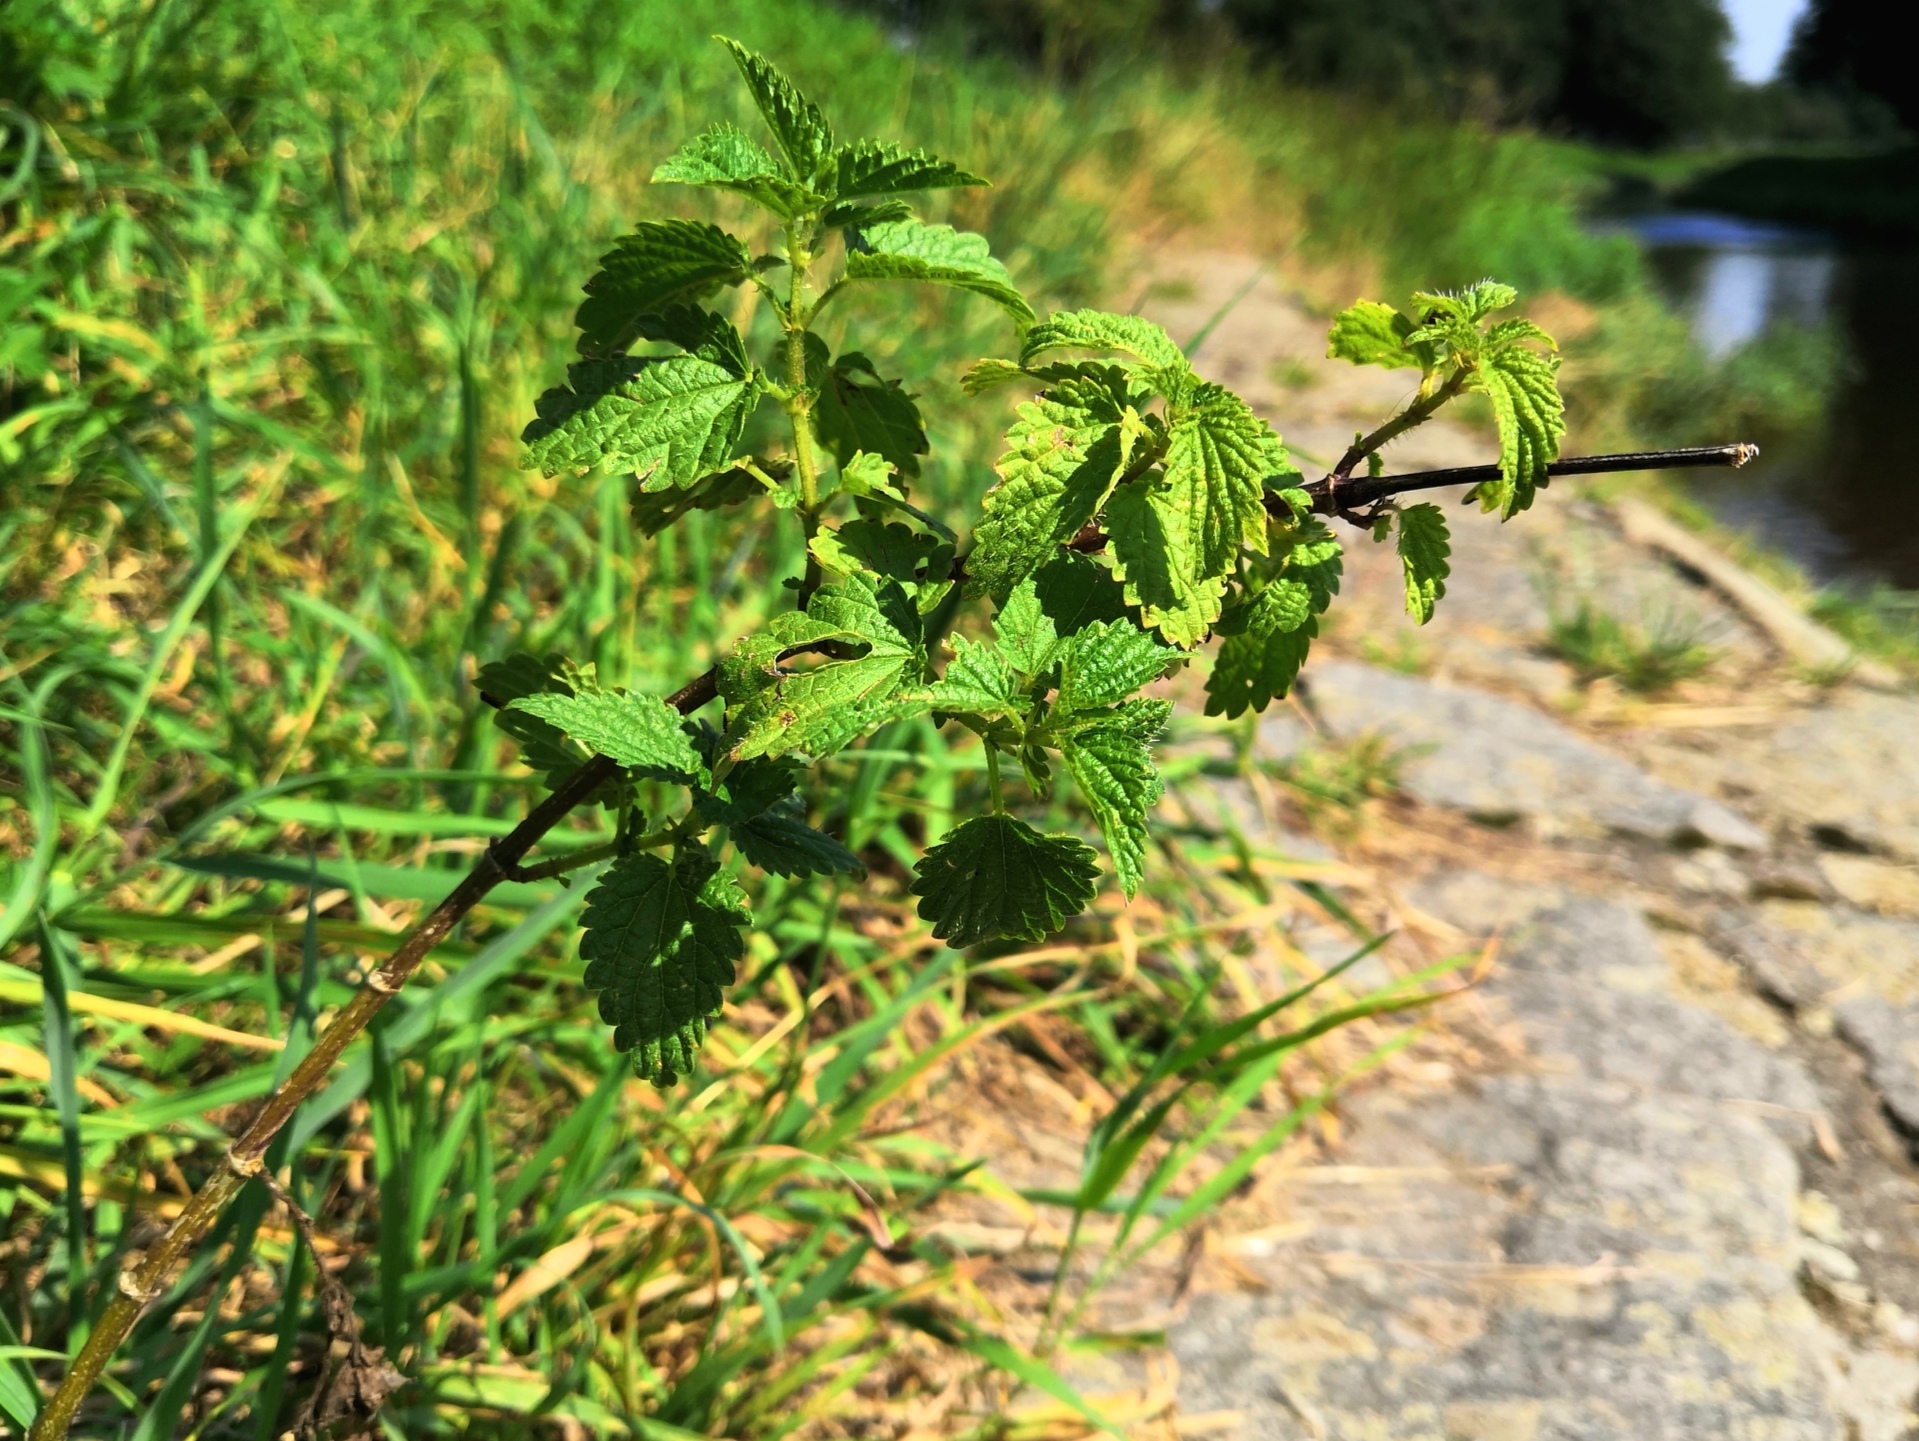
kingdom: Plantae
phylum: Tracheophyta
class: Magnoliopsida
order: Rosales
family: Urticaceae
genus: Urtica
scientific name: Urtica dioica
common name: Common nettle
